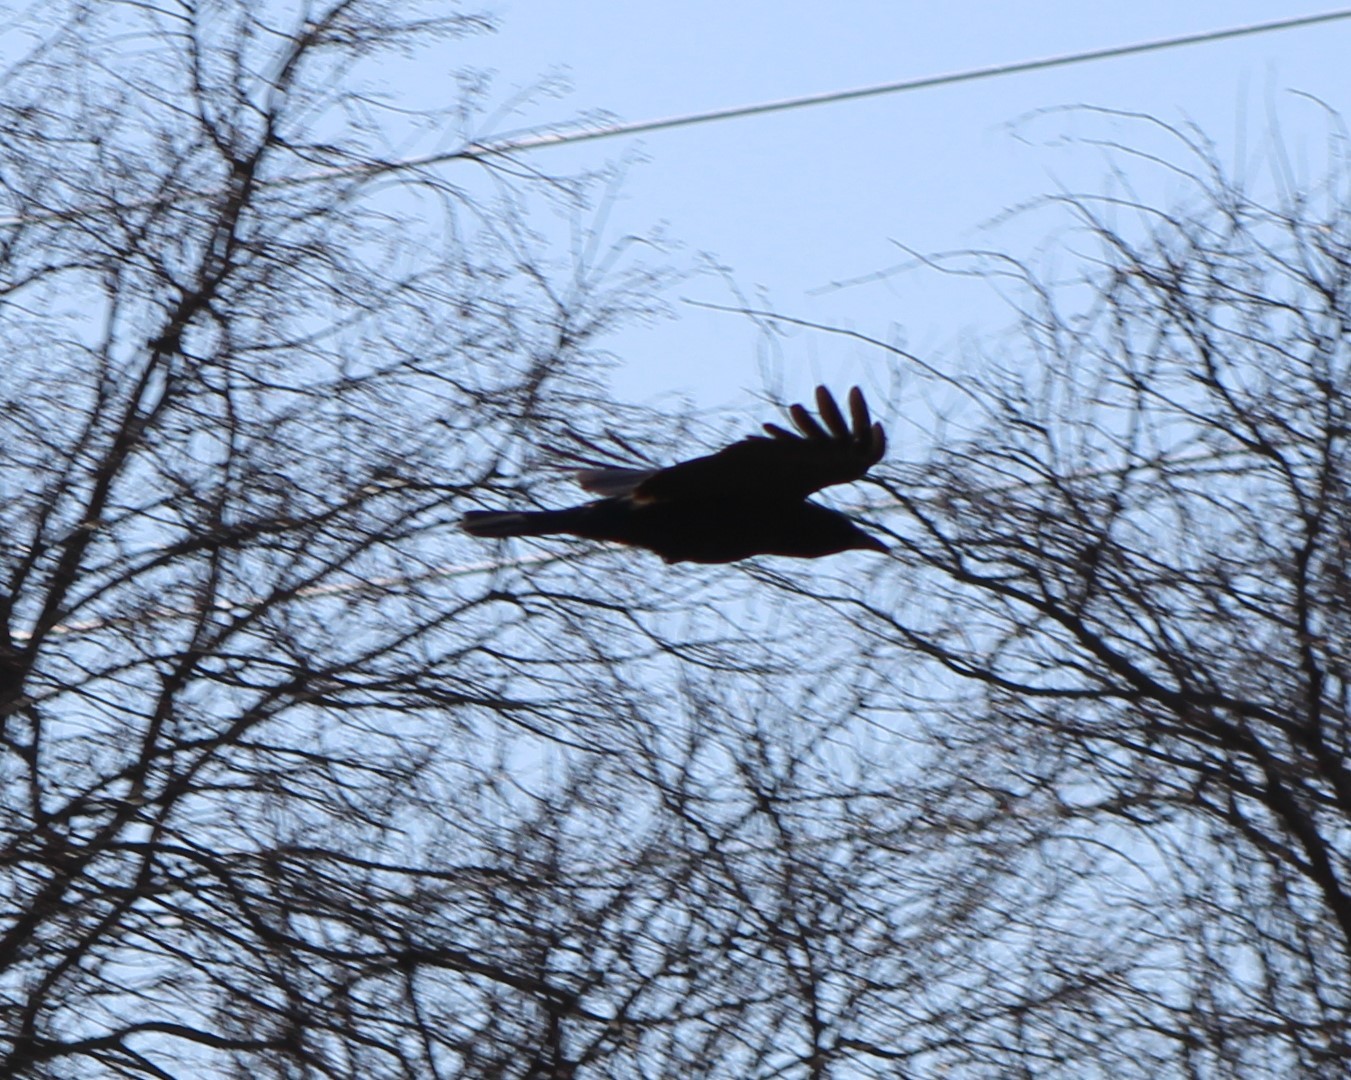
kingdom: Animalia
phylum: Chordata
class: Aves
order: Passeriformes
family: Corvidae
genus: Corvus
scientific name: Corvus brachyrhynchos
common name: American crow
